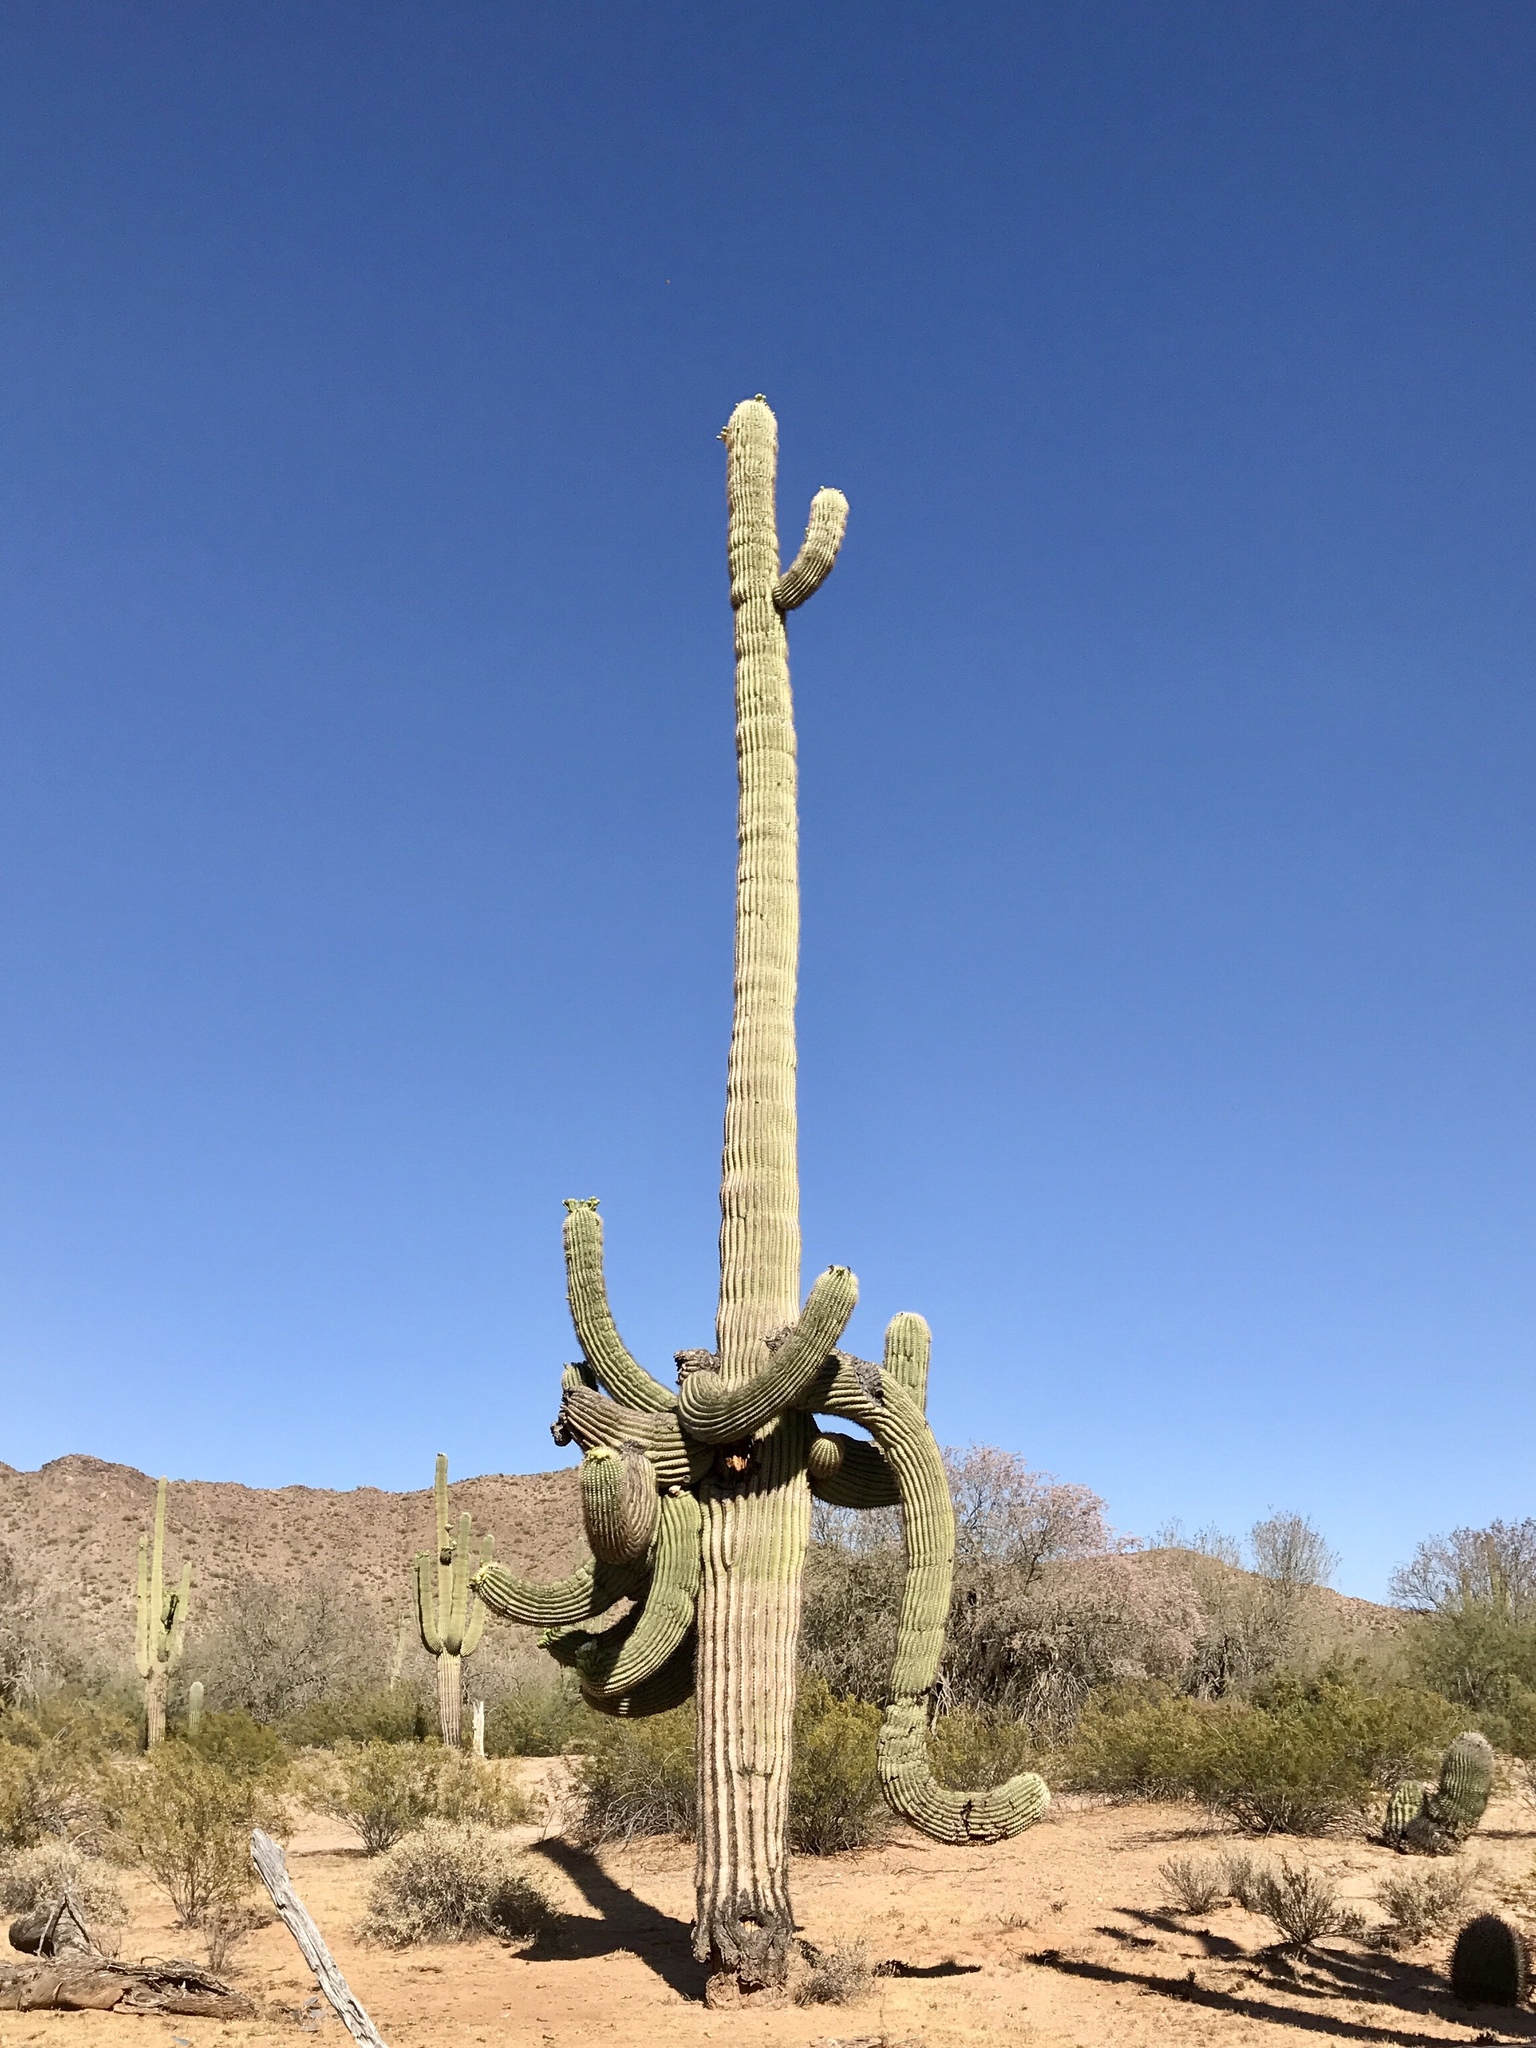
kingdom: Plantae
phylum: Tracheophyta
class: Magnoliopsida
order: Caryophyllales
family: Cactaceae
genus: Carnegiea
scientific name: Carnegiea gigantea
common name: Saguaro
